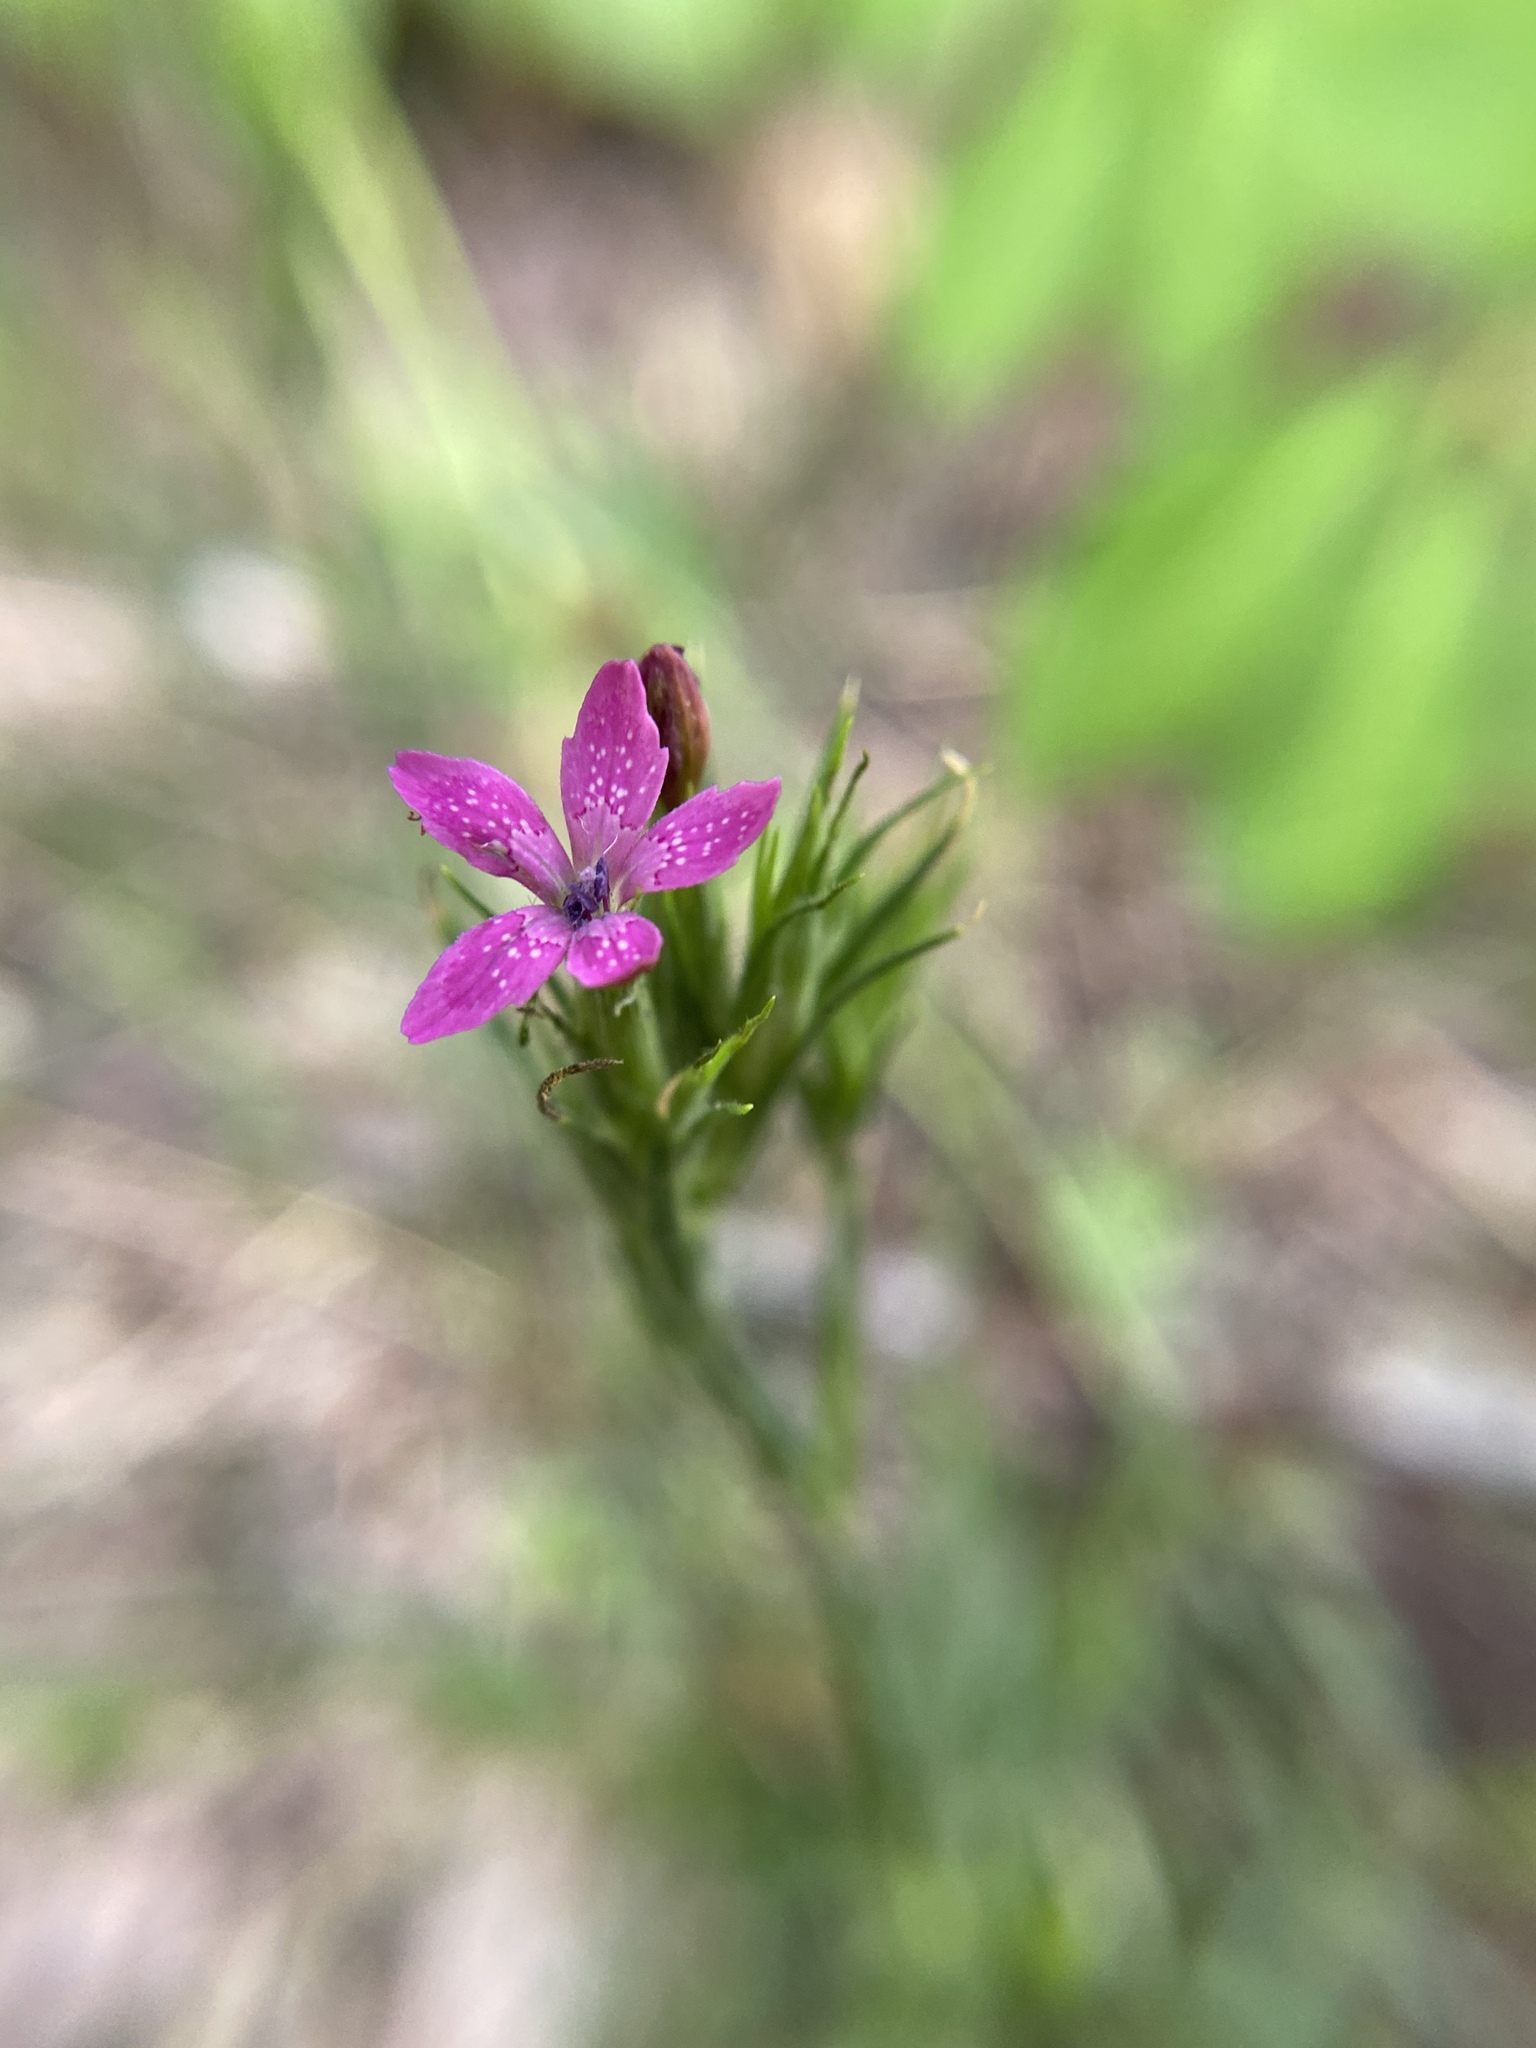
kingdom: Plantae
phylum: Tracheophyta
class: Magnoliopsida
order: Caryophyllales
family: Caryophyllaceae
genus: Dianthus
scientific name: Dianthus armeria
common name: Deptford pink
